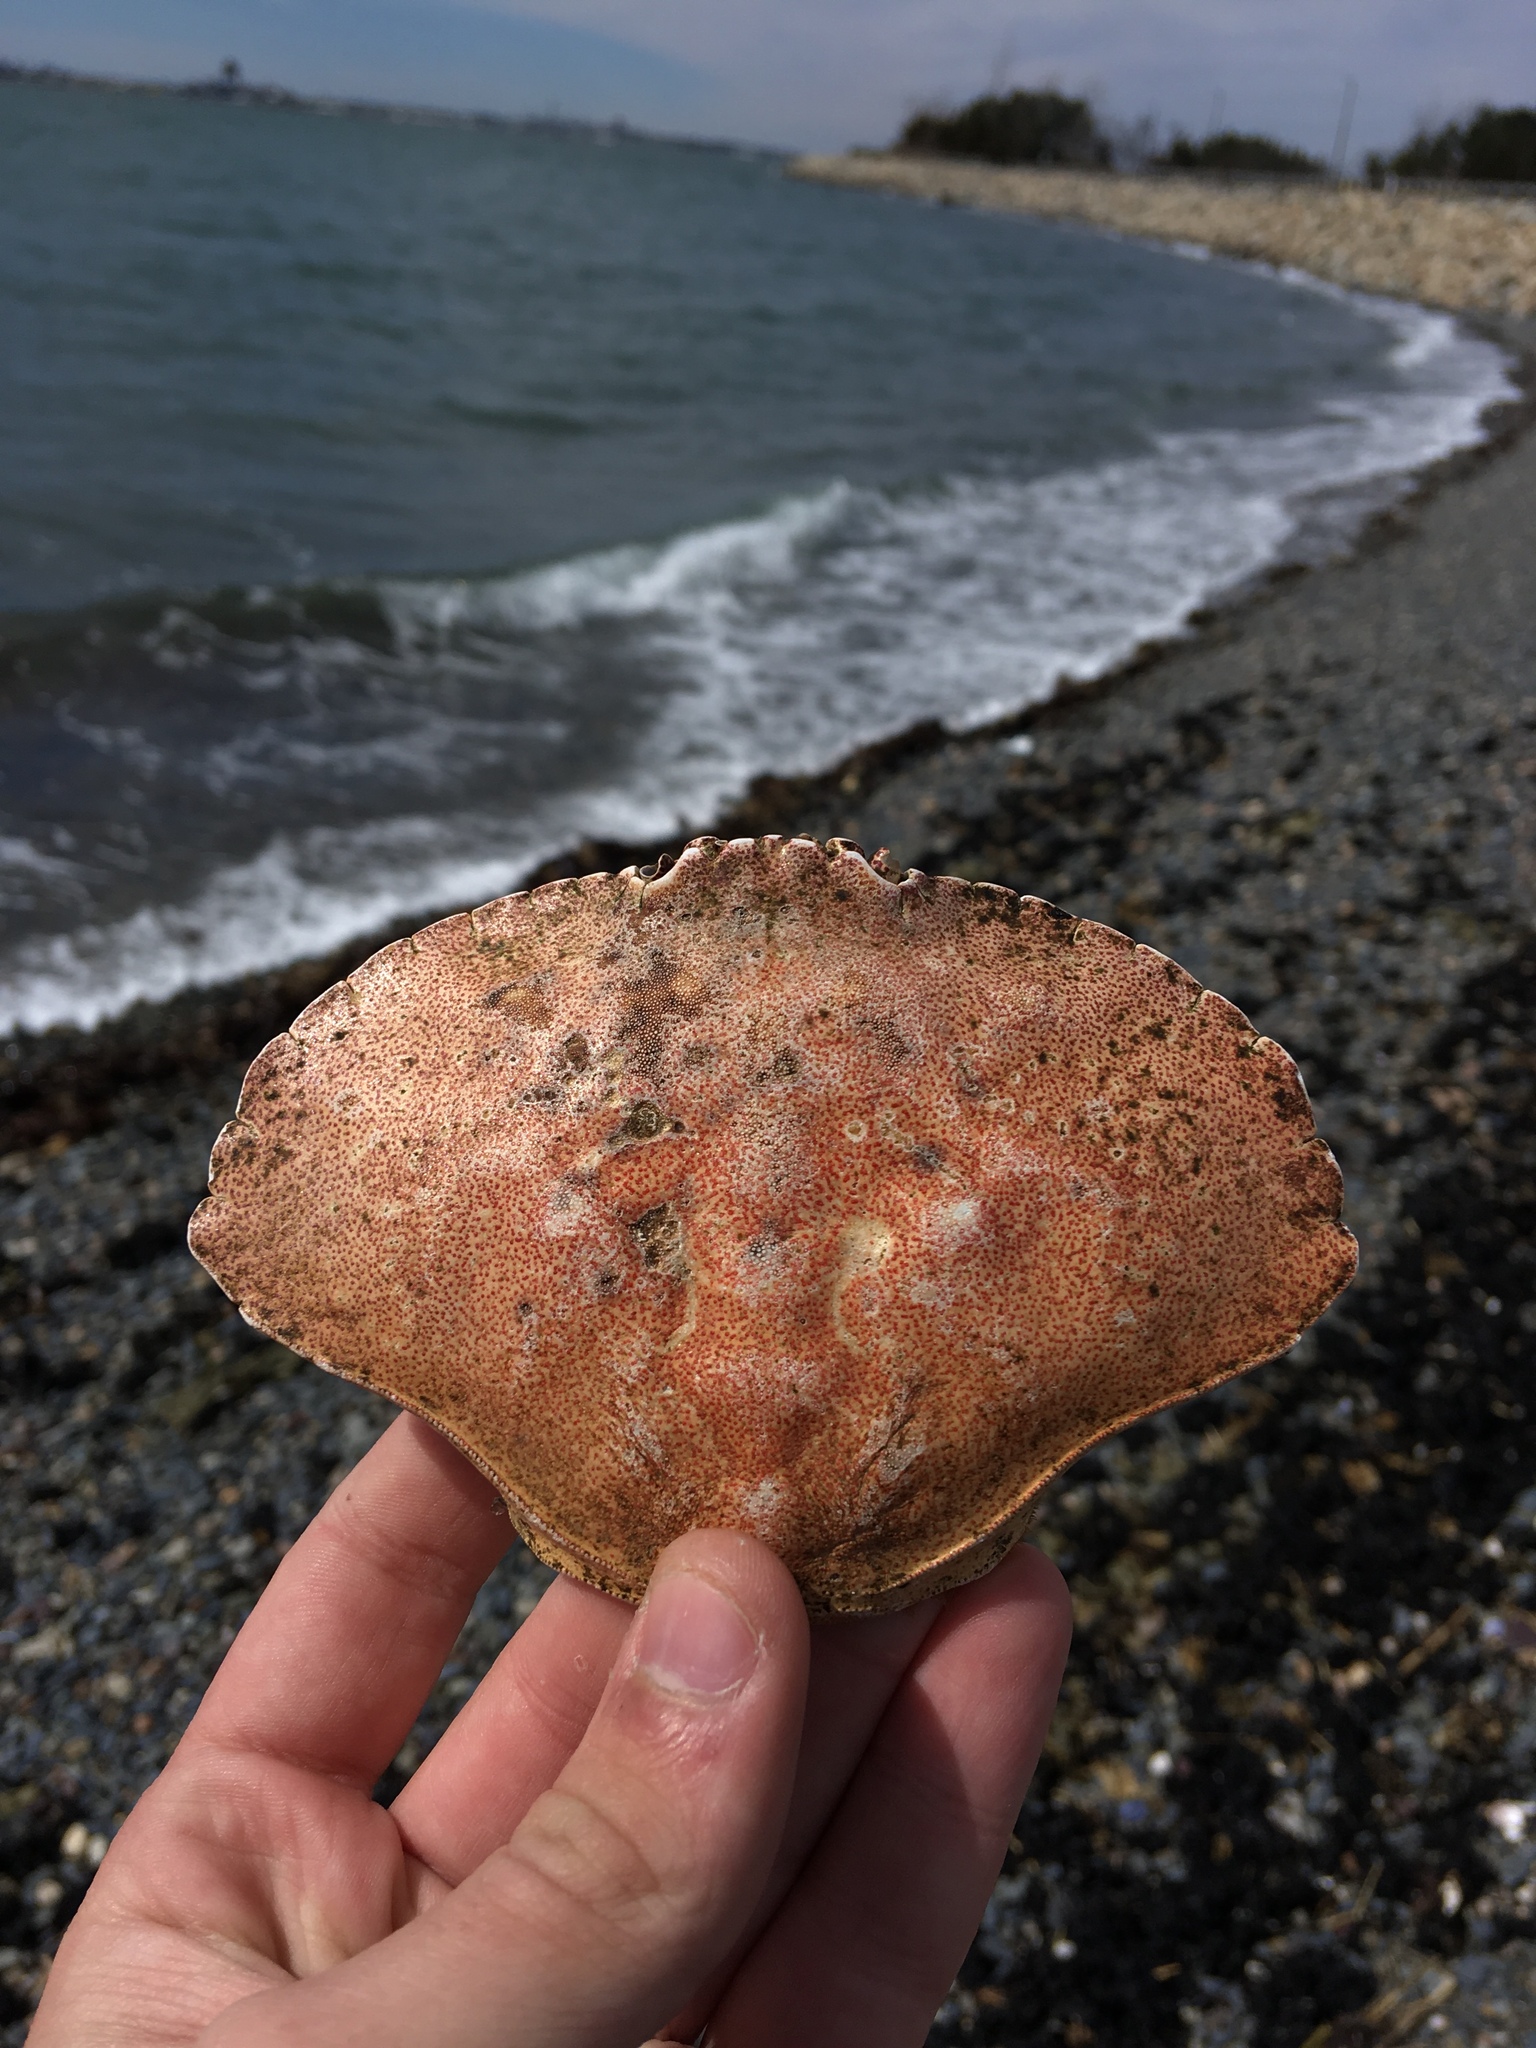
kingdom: Animalia
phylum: Arthropoda
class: Malacostraca
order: Decapoda
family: Cancridae
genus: Cancer
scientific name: Cancer irroratus
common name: Atlantic rock crab
